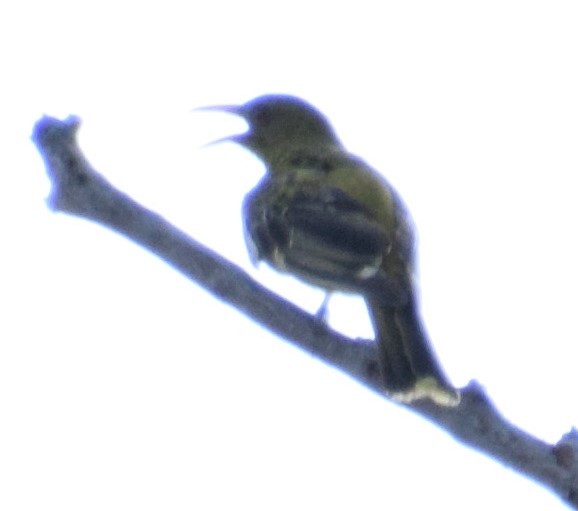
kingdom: Animalia
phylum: Chordata
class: Aves
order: Passeriformes
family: Oriolidae
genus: Oriolus
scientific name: Oriolus sagittatus
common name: Olive-backed oriole
